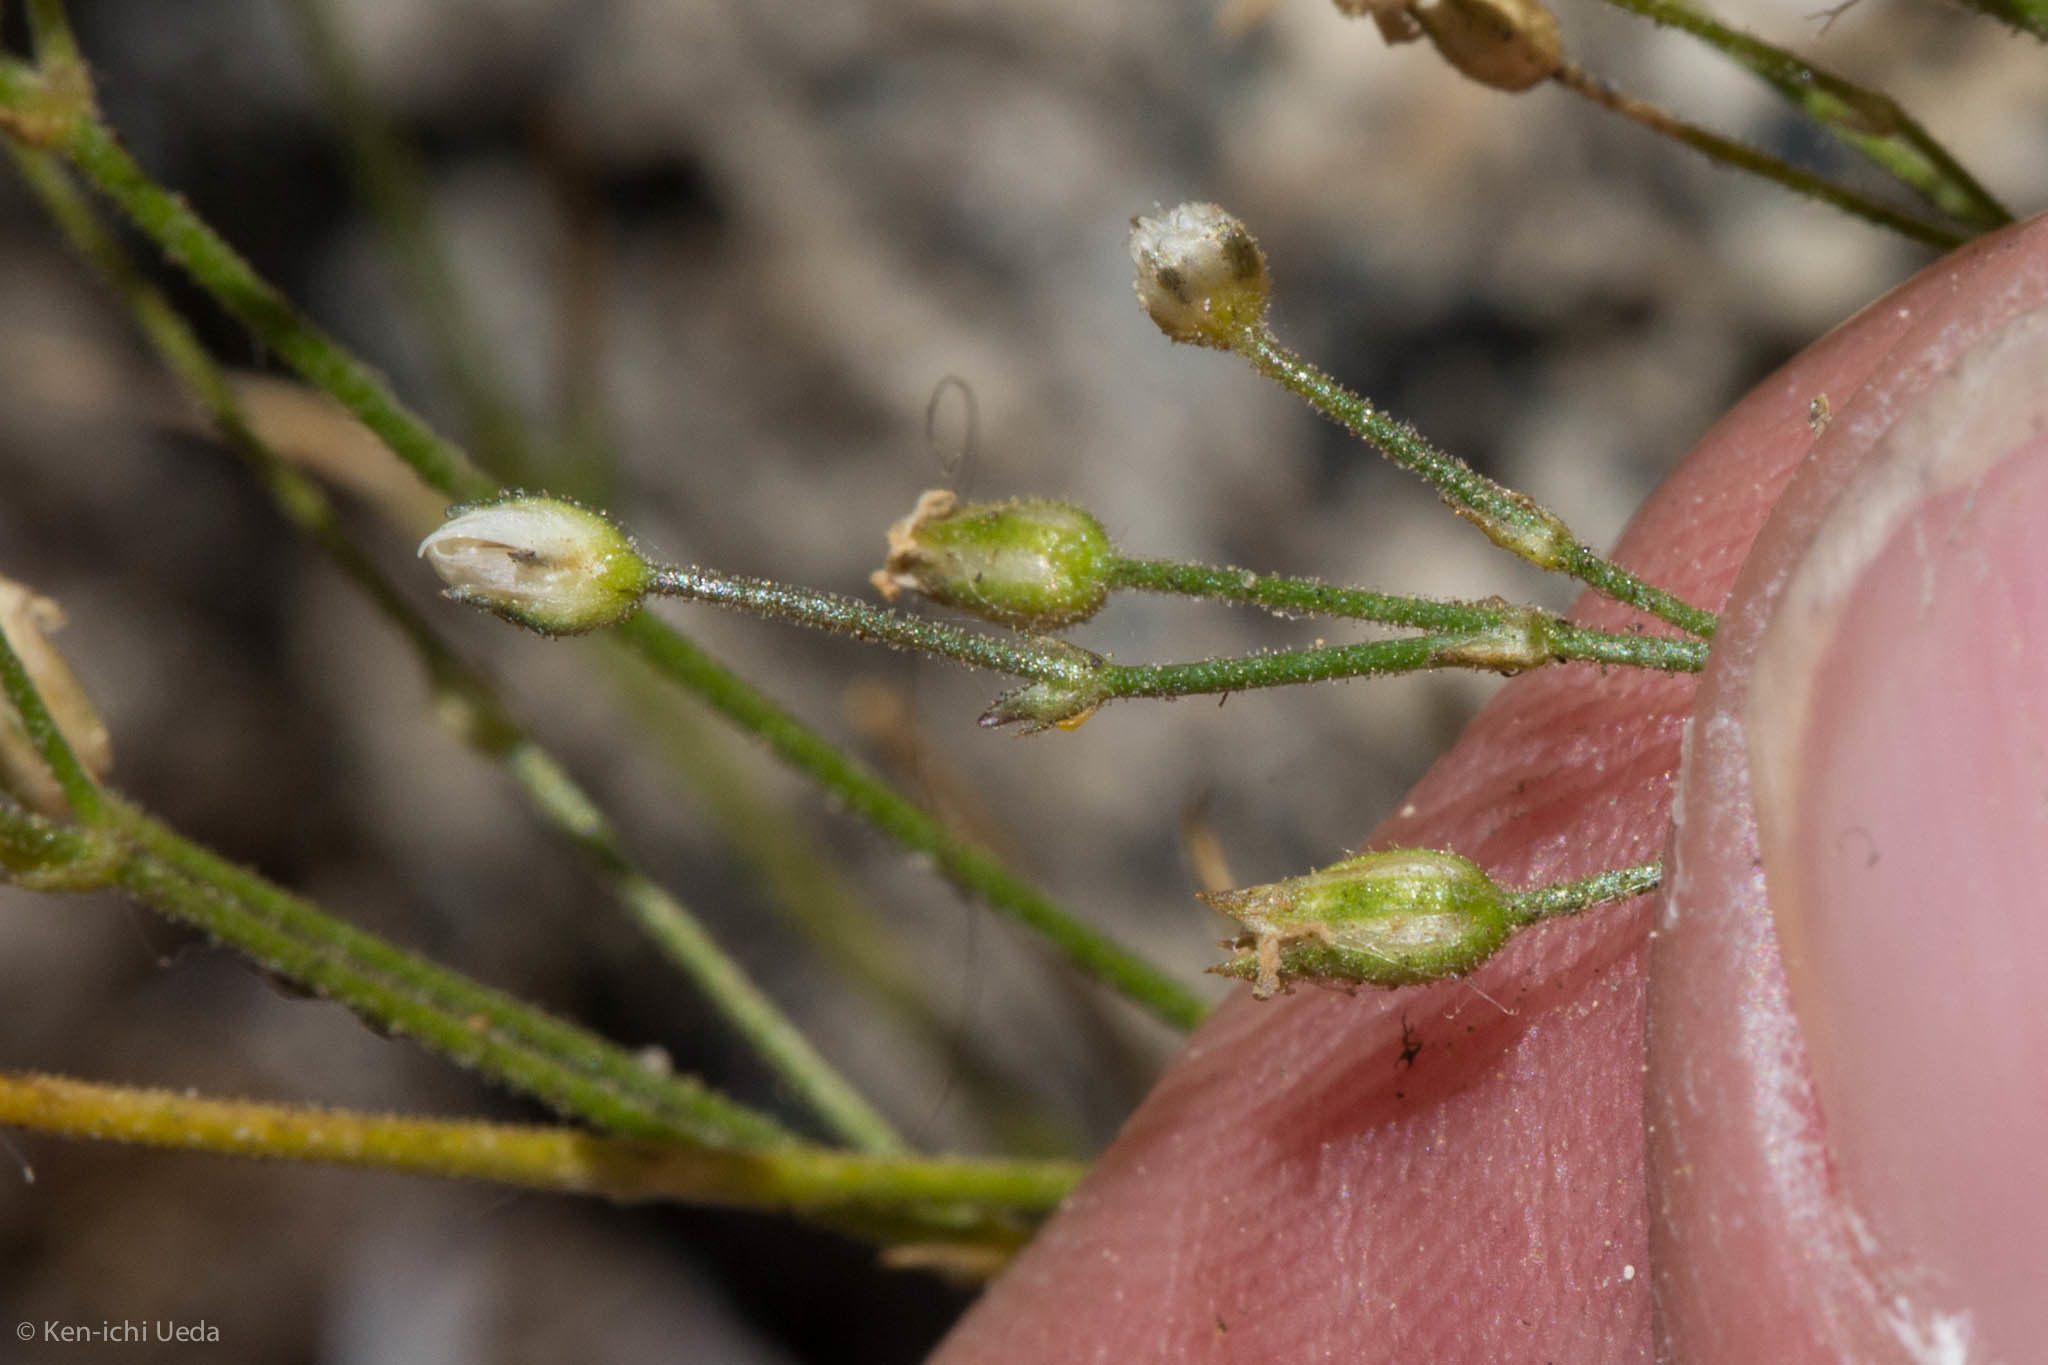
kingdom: Plantae
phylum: Tracheophyta
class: Magnoliopsida
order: Caryophyllales
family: Caryophyllaceae
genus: Eremogone
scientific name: Eremogone kingii
